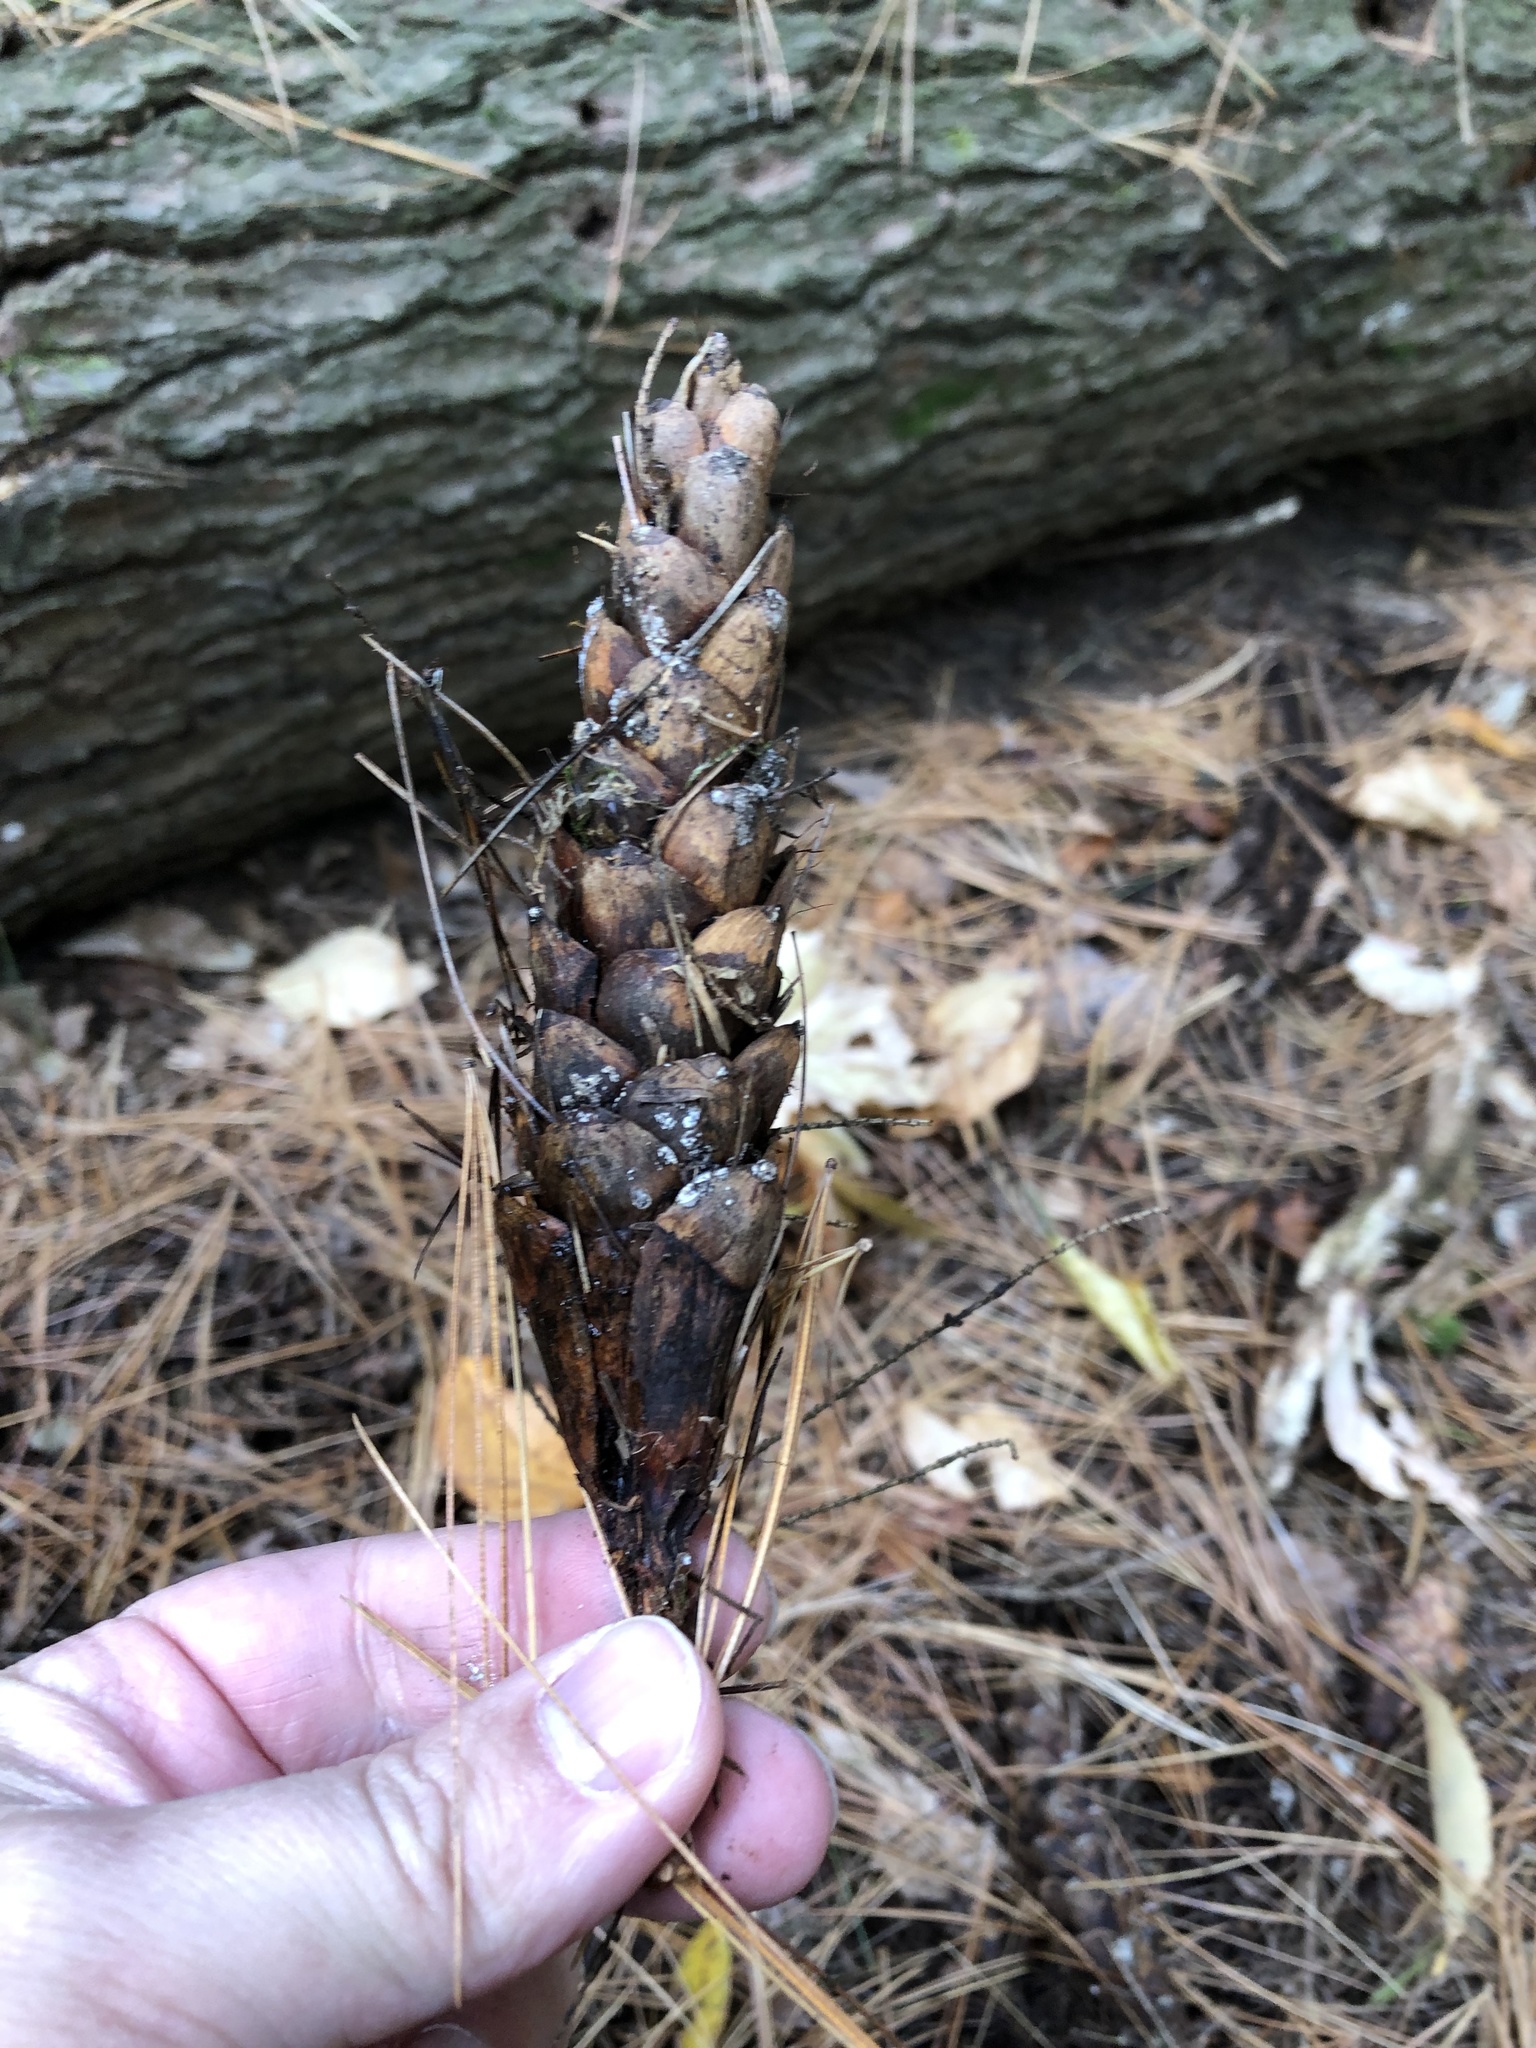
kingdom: Plantae
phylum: Tracheophyta
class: Pinopsida
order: Pinales
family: Pinaceae
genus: Pinus
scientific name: Pinus strobus
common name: Weymouth pine
